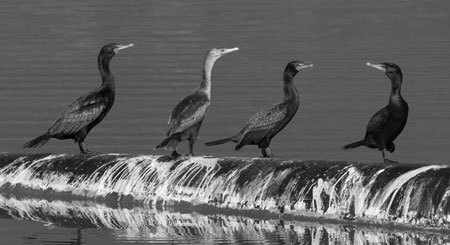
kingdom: Animalia
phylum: Chordata
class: Aves
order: Suliformes
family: Phalacrocoracidae
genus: Phalacrocorax
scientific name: Phalacrocorax auritus
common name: Double-crested cormorant
